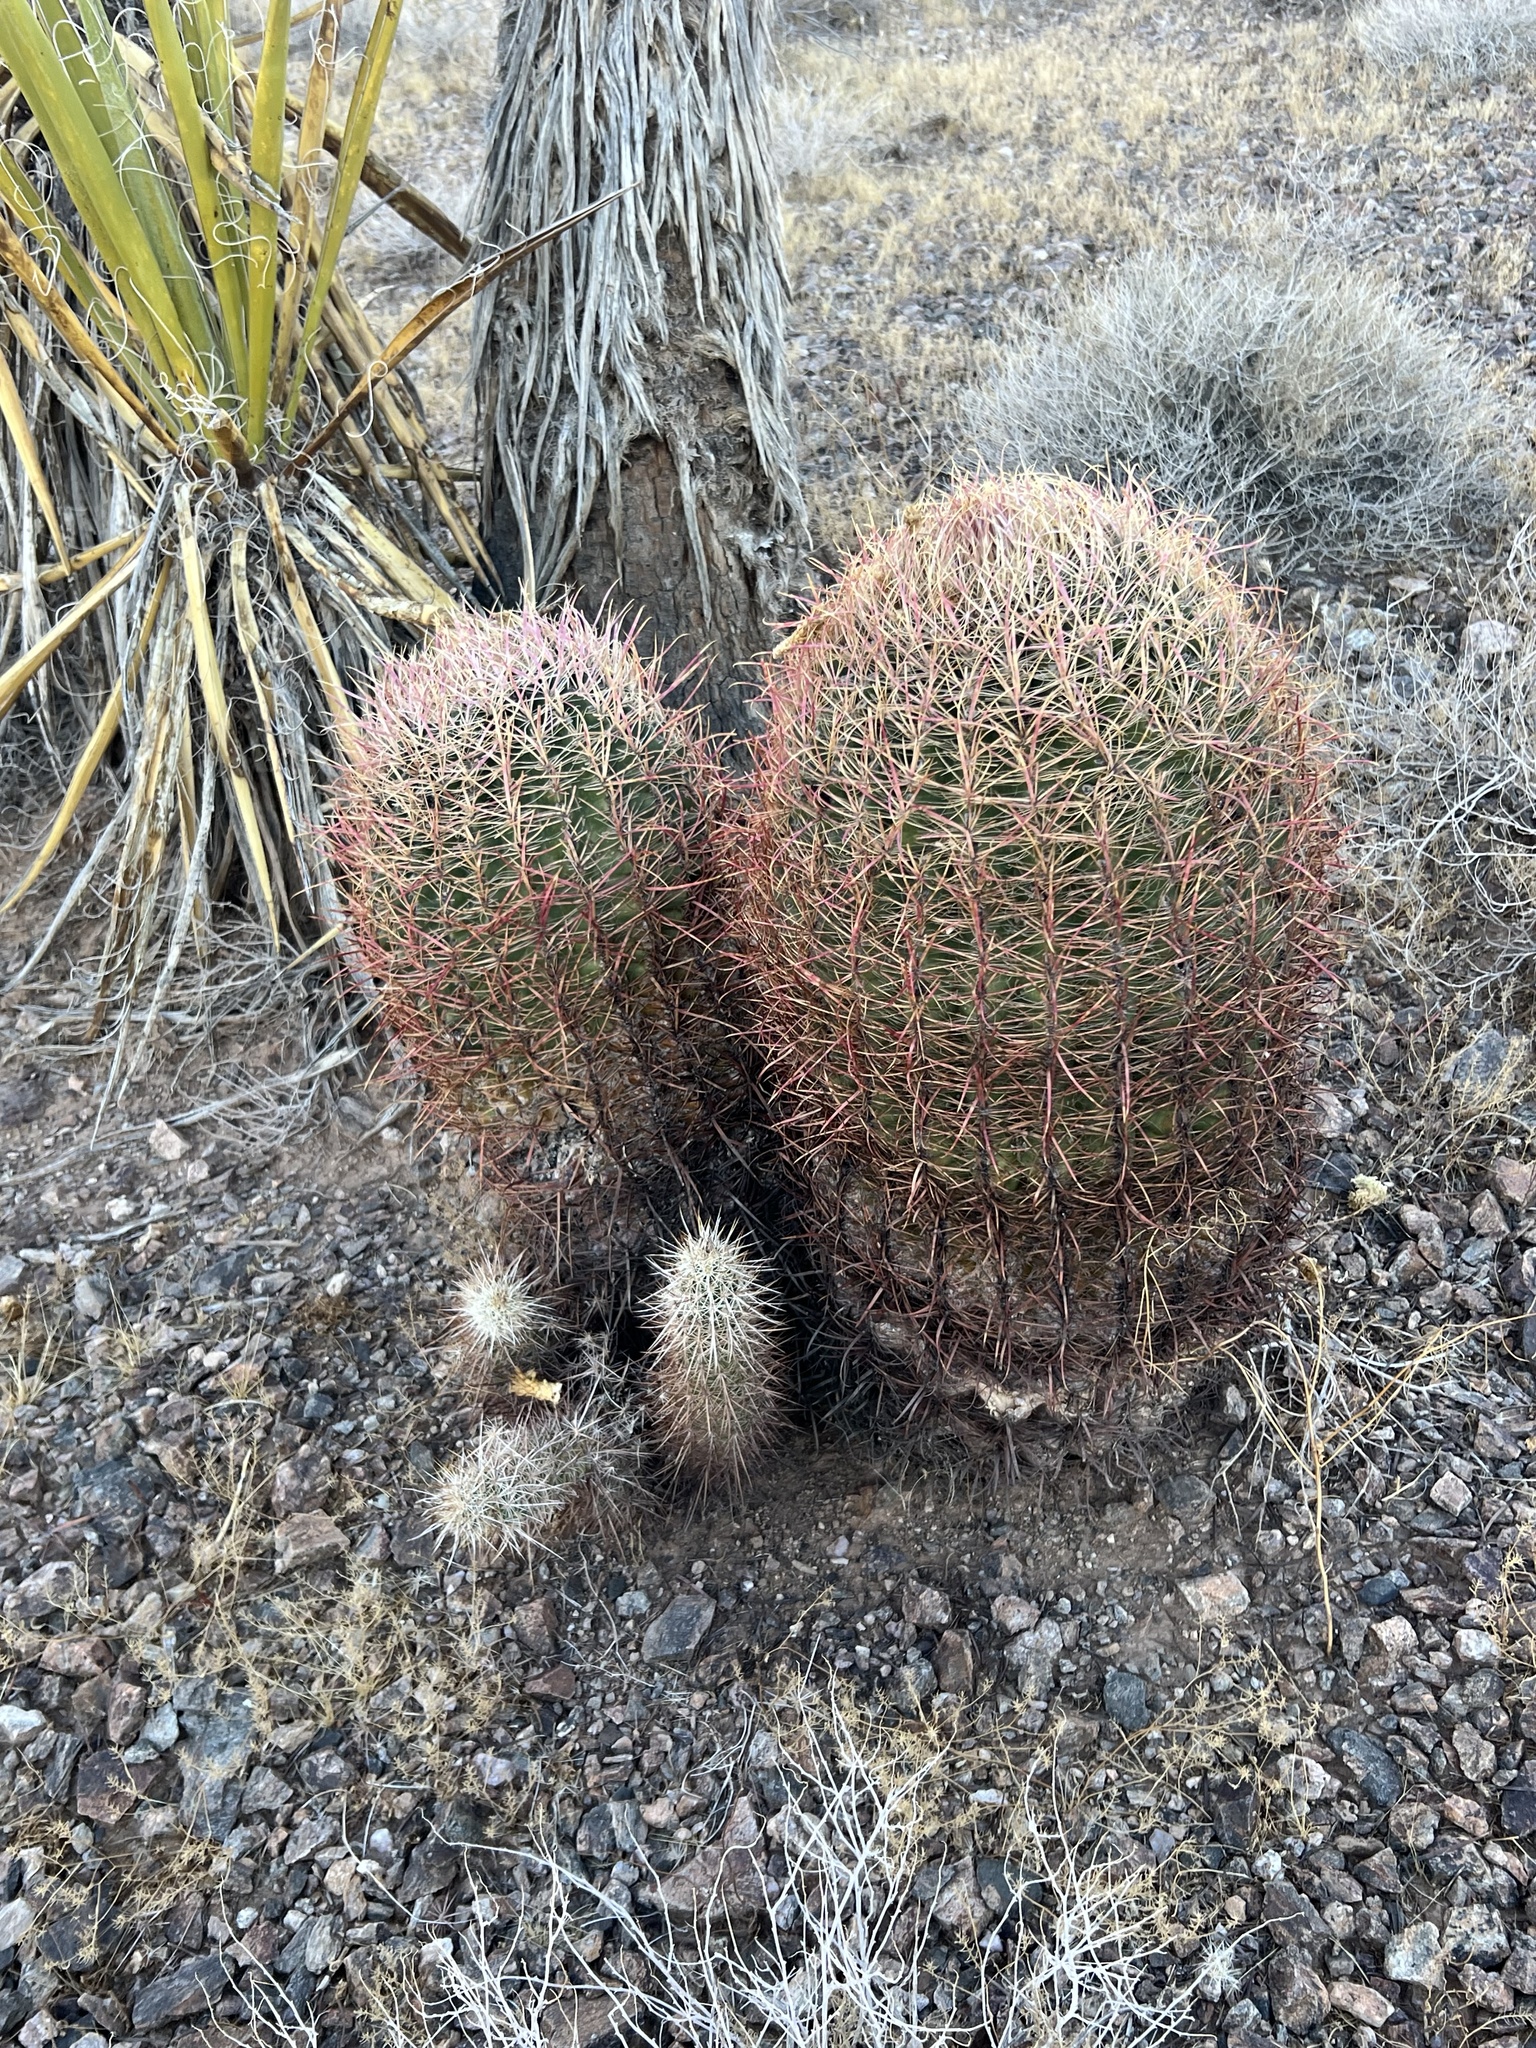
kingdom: Plantae
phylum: Tracheophyta
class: Magnoliopsida
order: Caryophyllales
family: Cactaceae
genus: Ferocactus
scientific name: Ferocactus cylindraceus
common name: California barrel cactus
